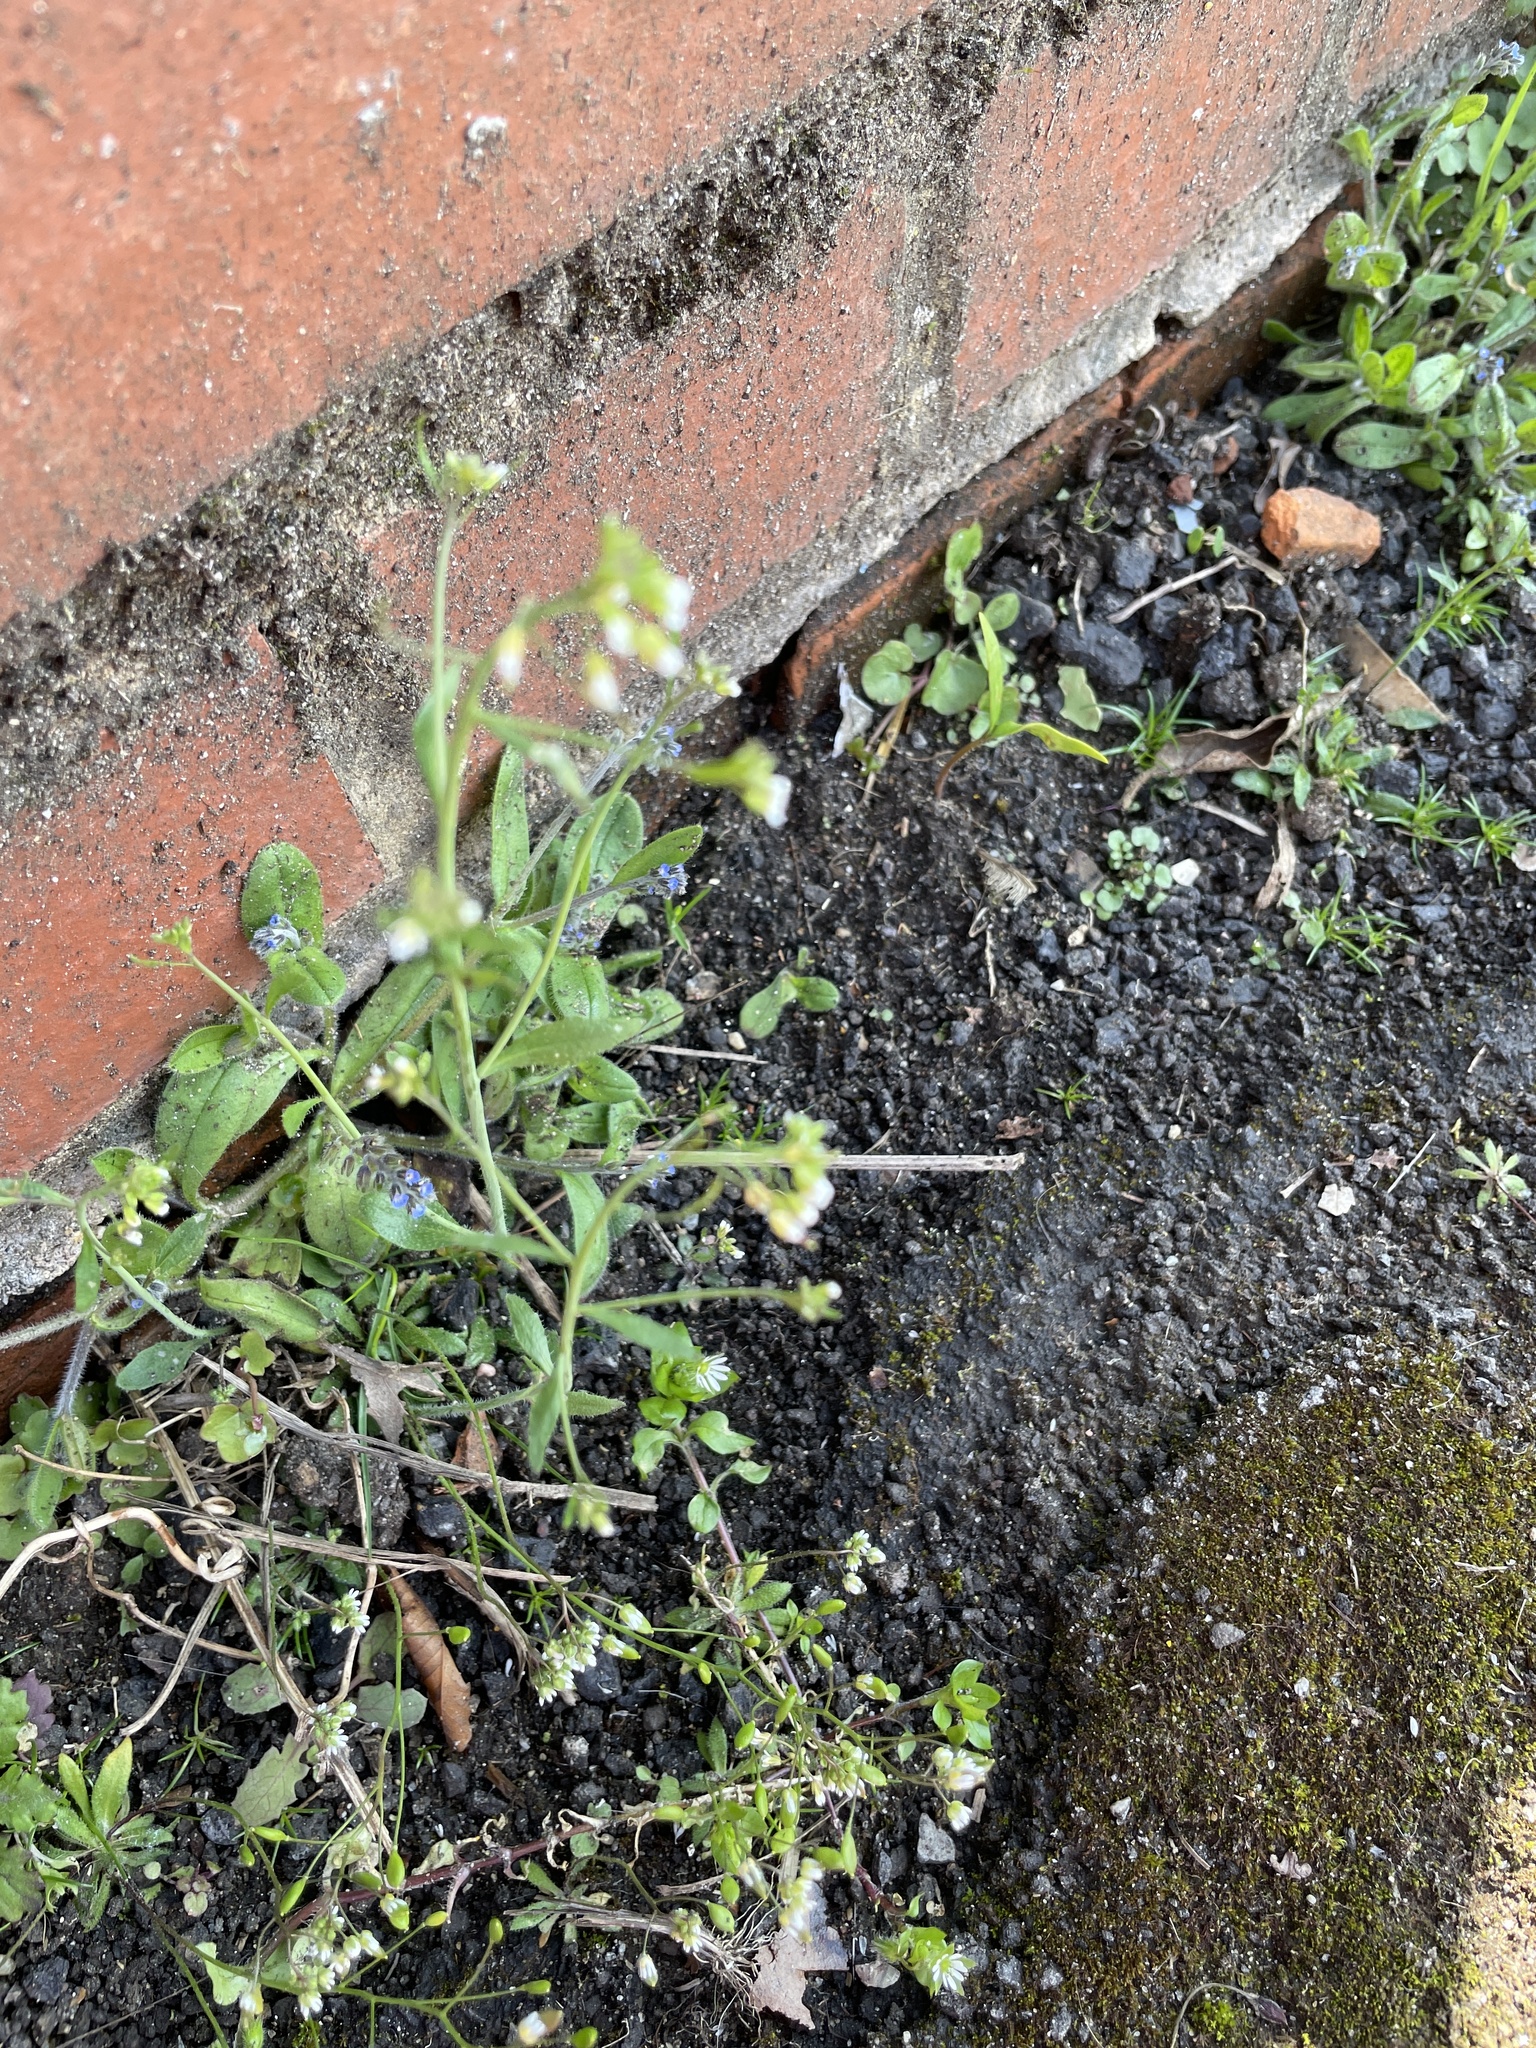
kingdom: Plantae
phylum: Tracheophyta
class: Magnoliopsida
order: Brassicales
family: Brassicaceae
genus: Arabidopsis
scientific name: Arabidopsis thaliana
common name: Thale cress
